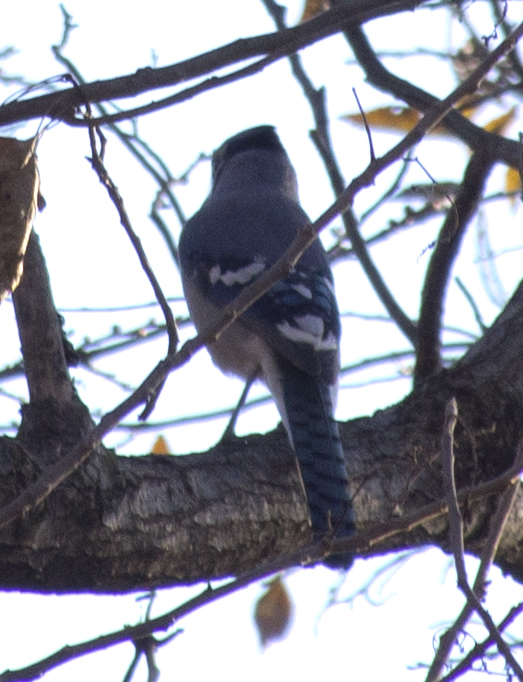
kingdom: Animalia
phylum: Chordata
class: Aves
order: Passeriformes
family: Corvidae
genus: Cyanocitta
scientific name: Cyanocitta cristata
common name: Blue jay
